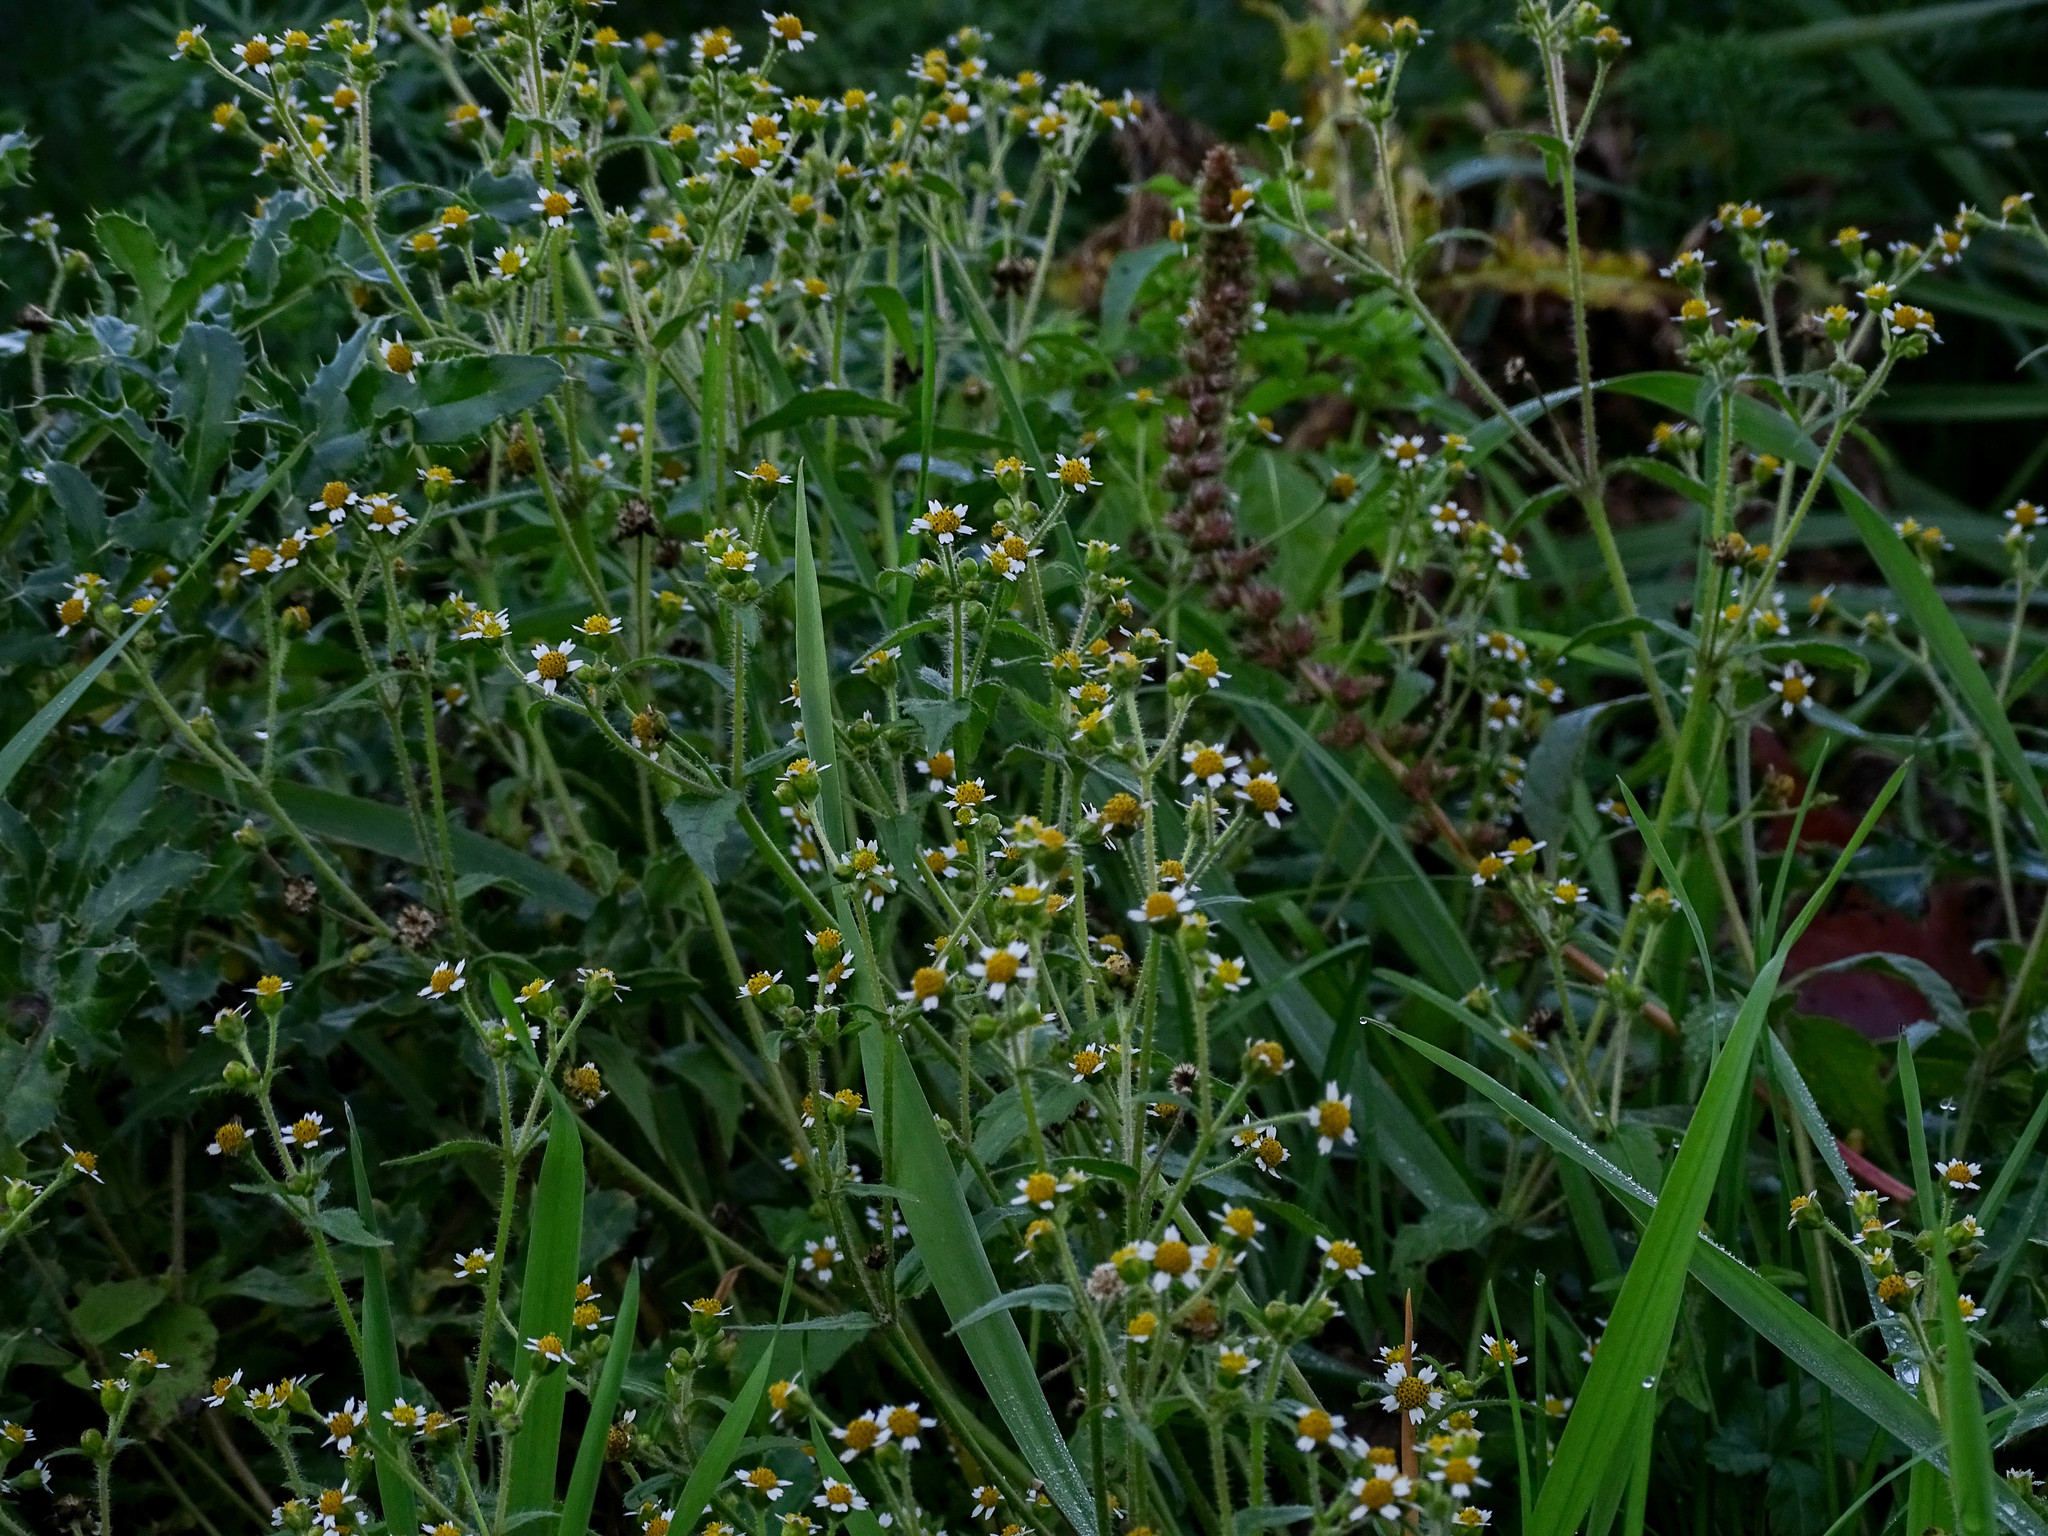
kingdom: Plantae
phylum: Tracheophyta
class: Magnoliopsida
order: Asterales
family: Asteraceae
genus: Galinsoga
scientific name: Galinsoga quadriradiata
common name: Shaggy soldier
